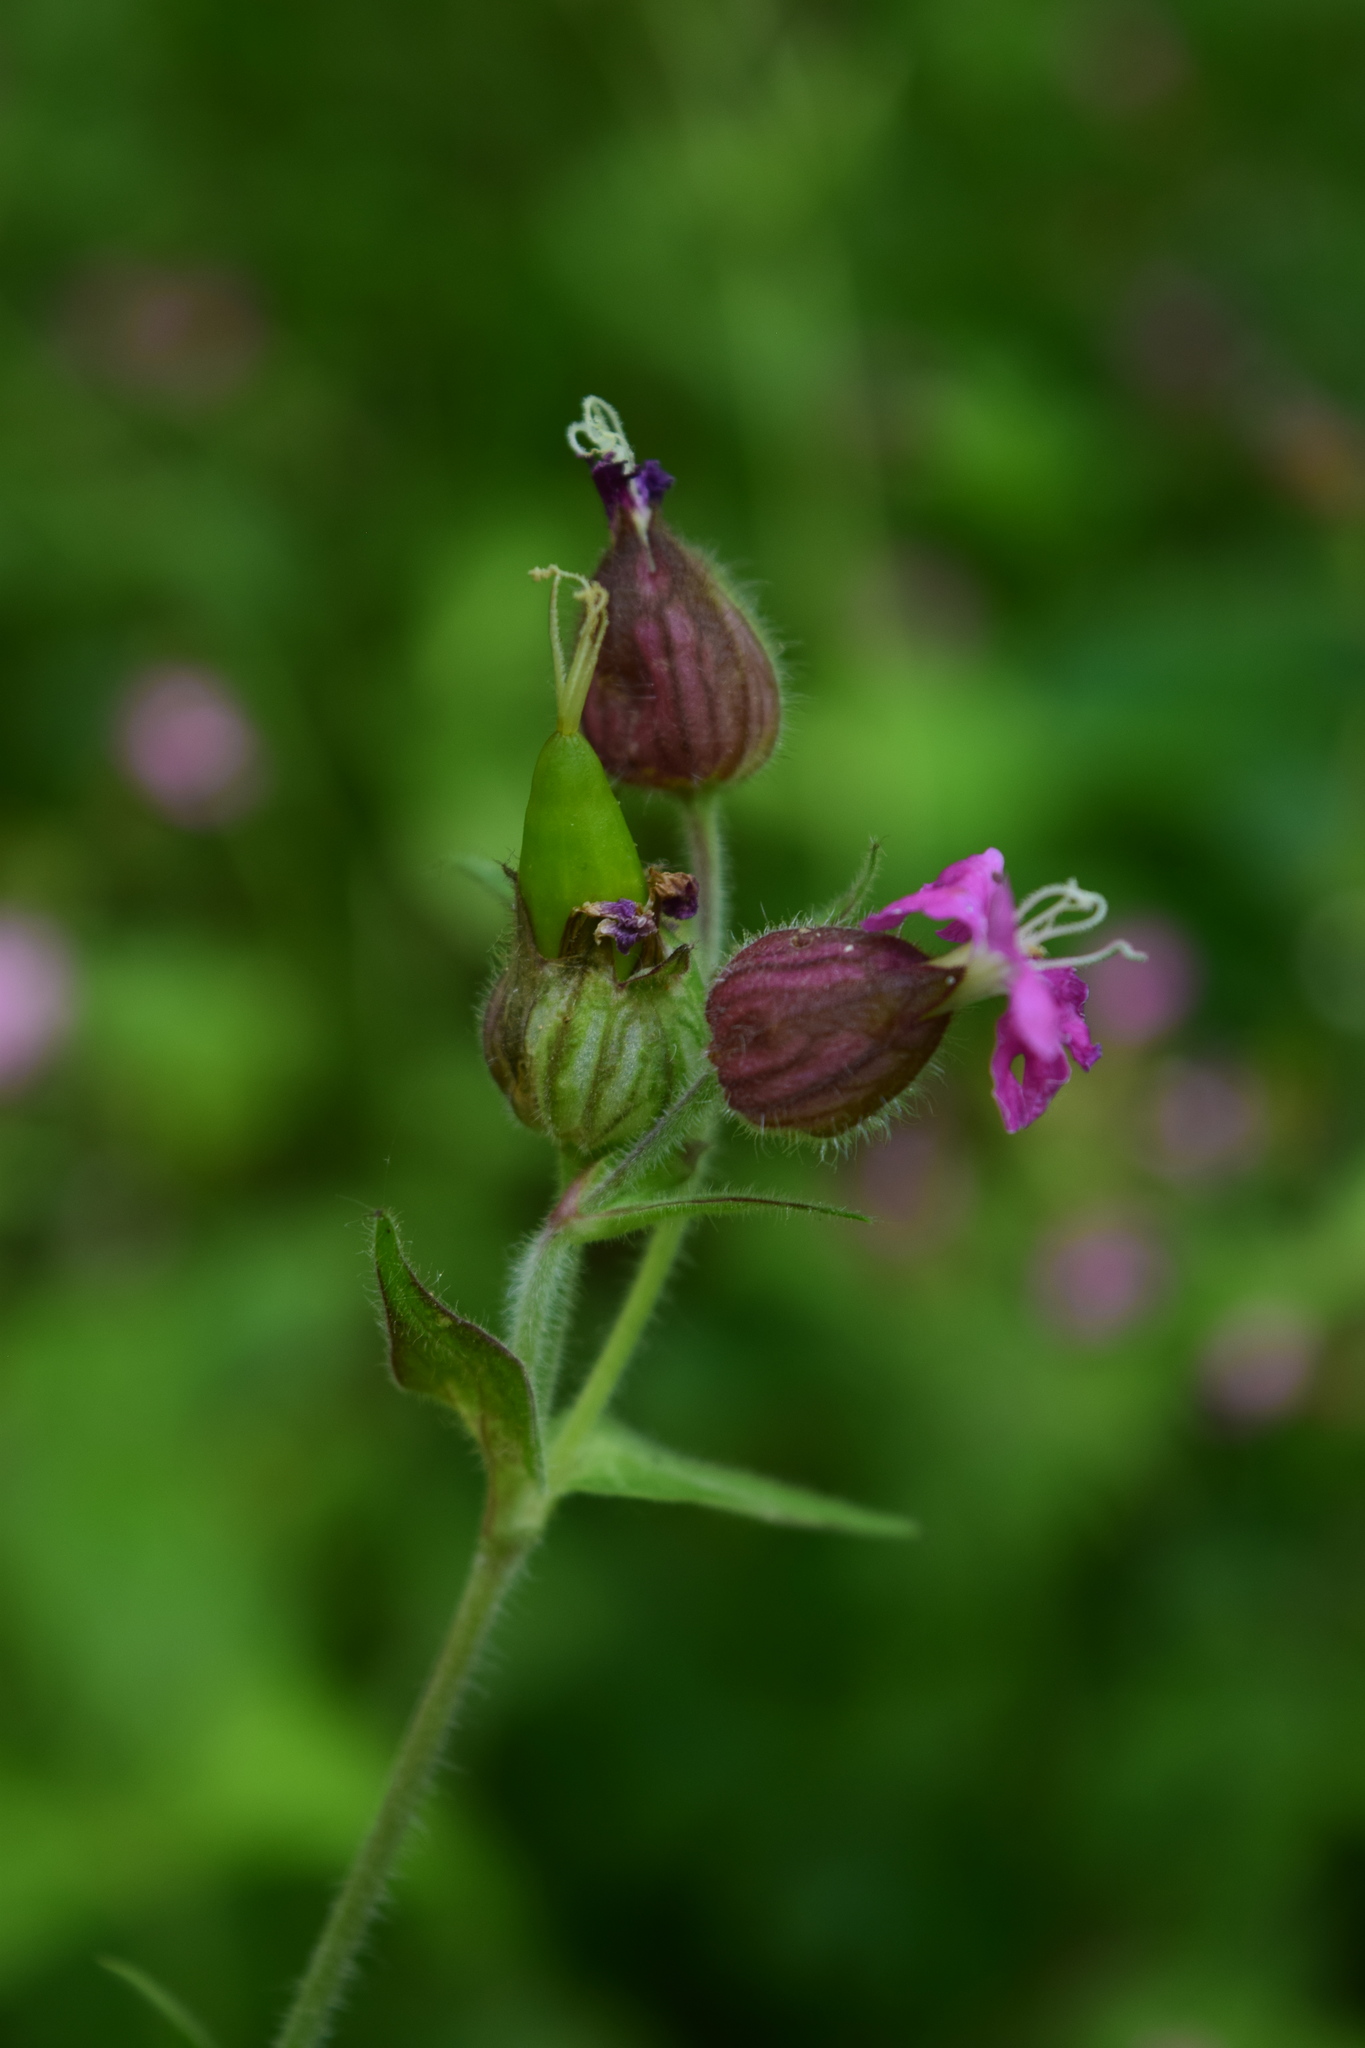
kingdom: Plantae
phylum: Tracheophyta
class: Magnoliopsida
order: Caryophyllales
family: Caryophyllaceae
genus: Silene
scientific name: Silene dioica
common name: Red campion
